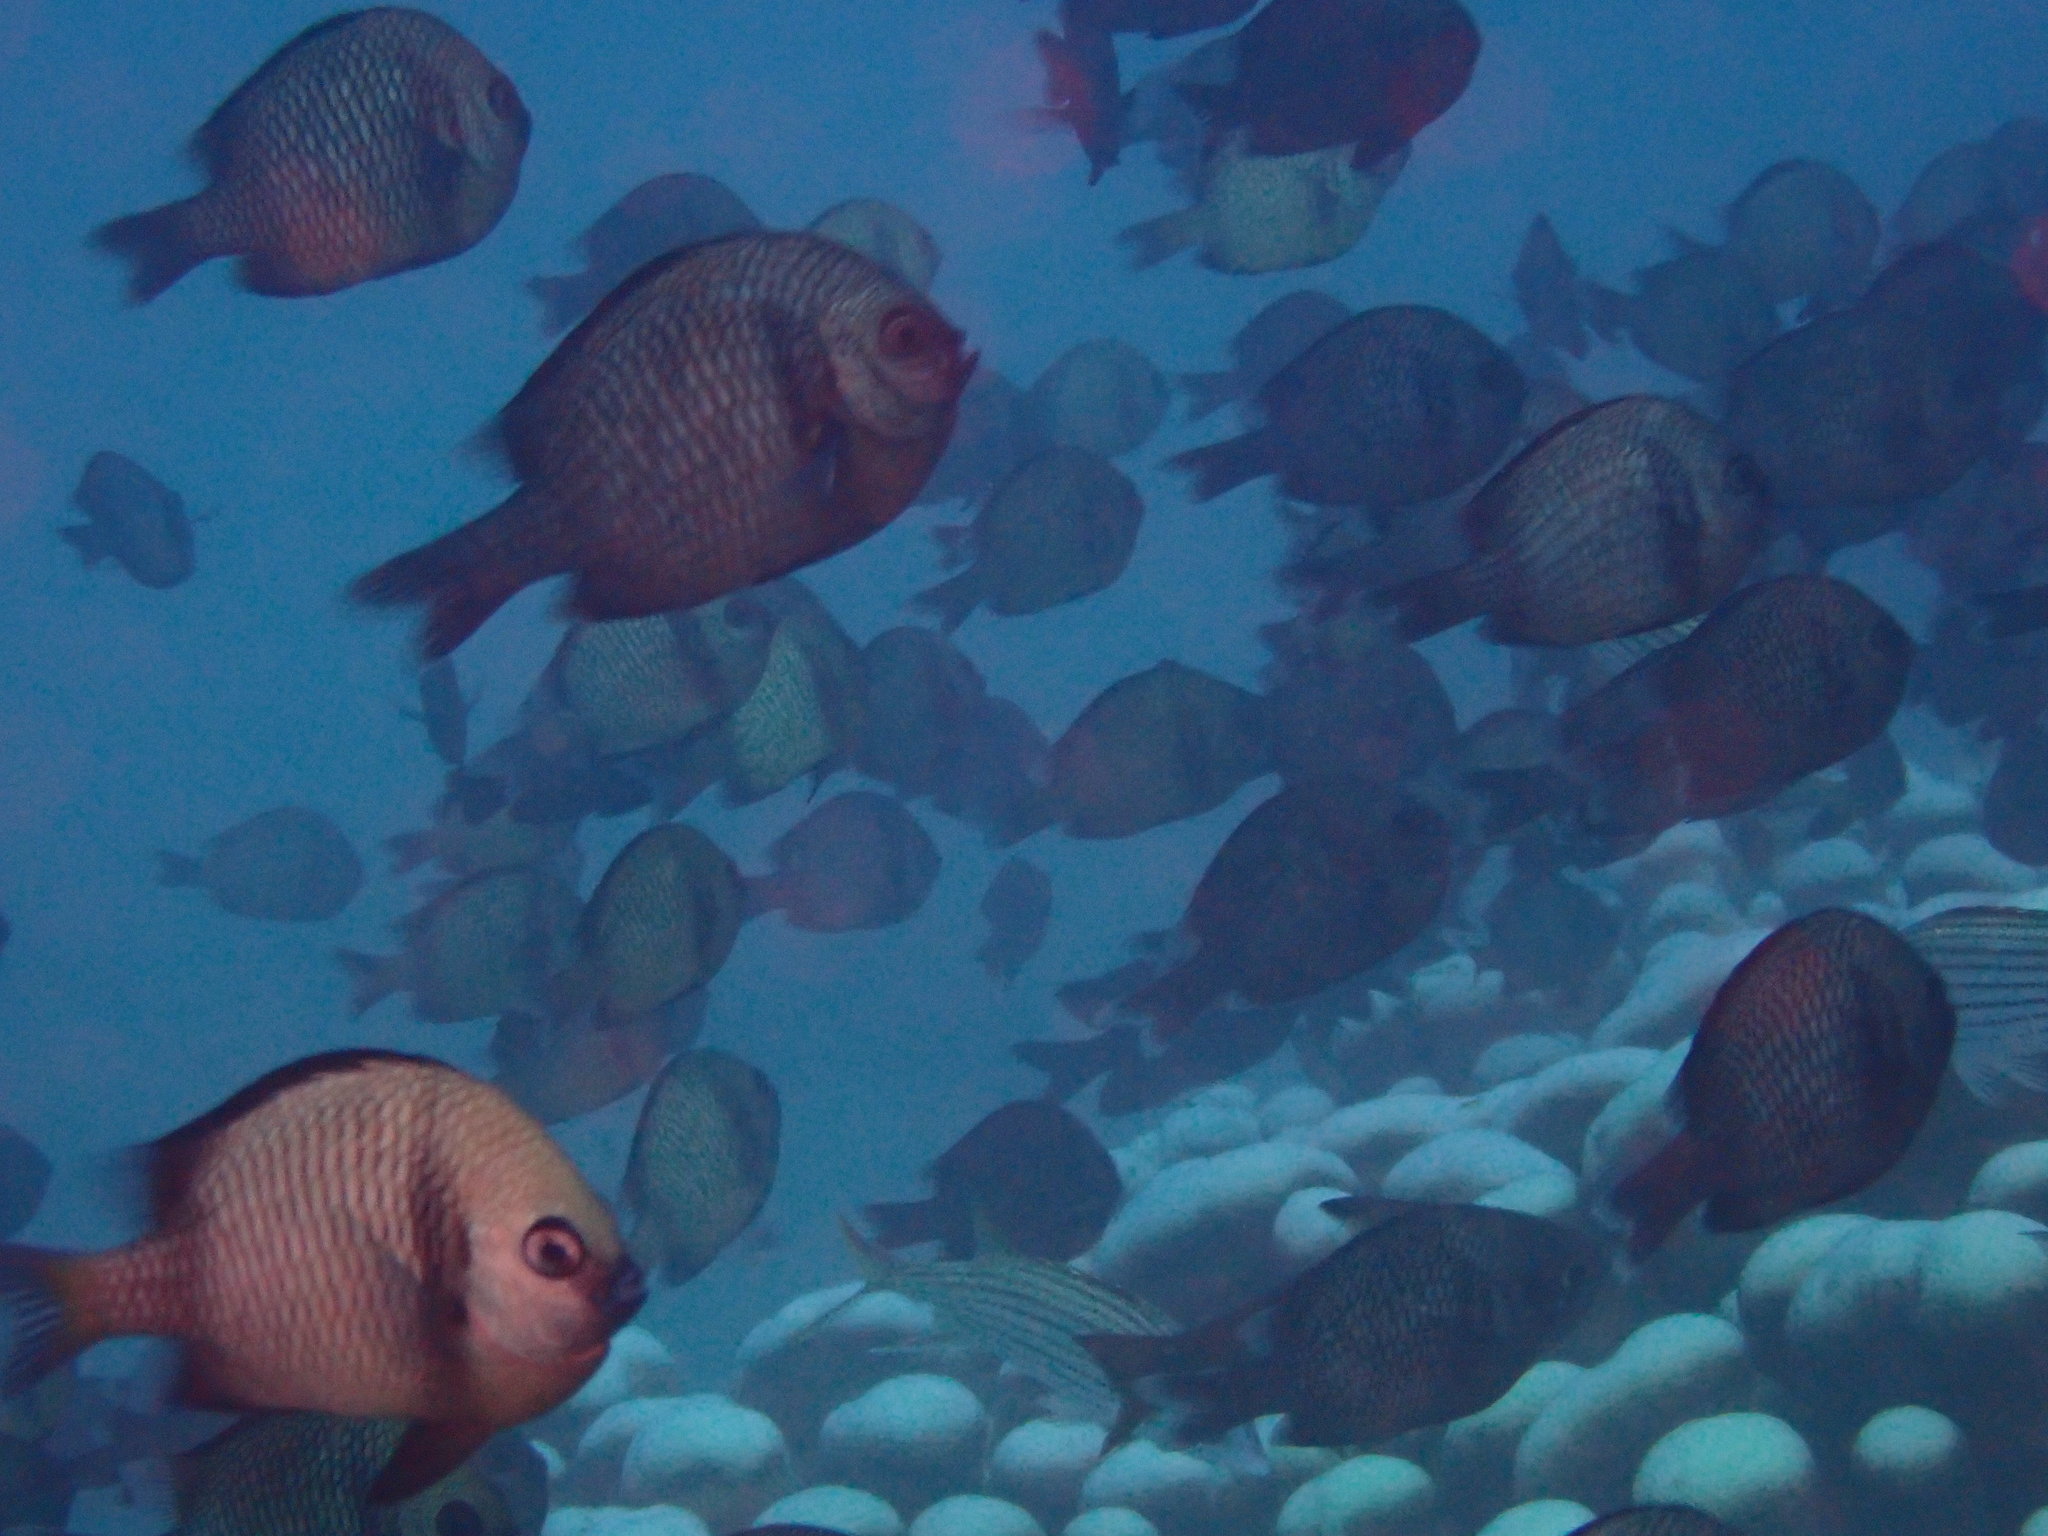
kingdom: Animalia
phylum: Chordata
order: Perciformes
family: Pomacentridae
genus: Dascyllus
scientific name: Dascyllus reticulatus
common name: Reticulated dascyllus
